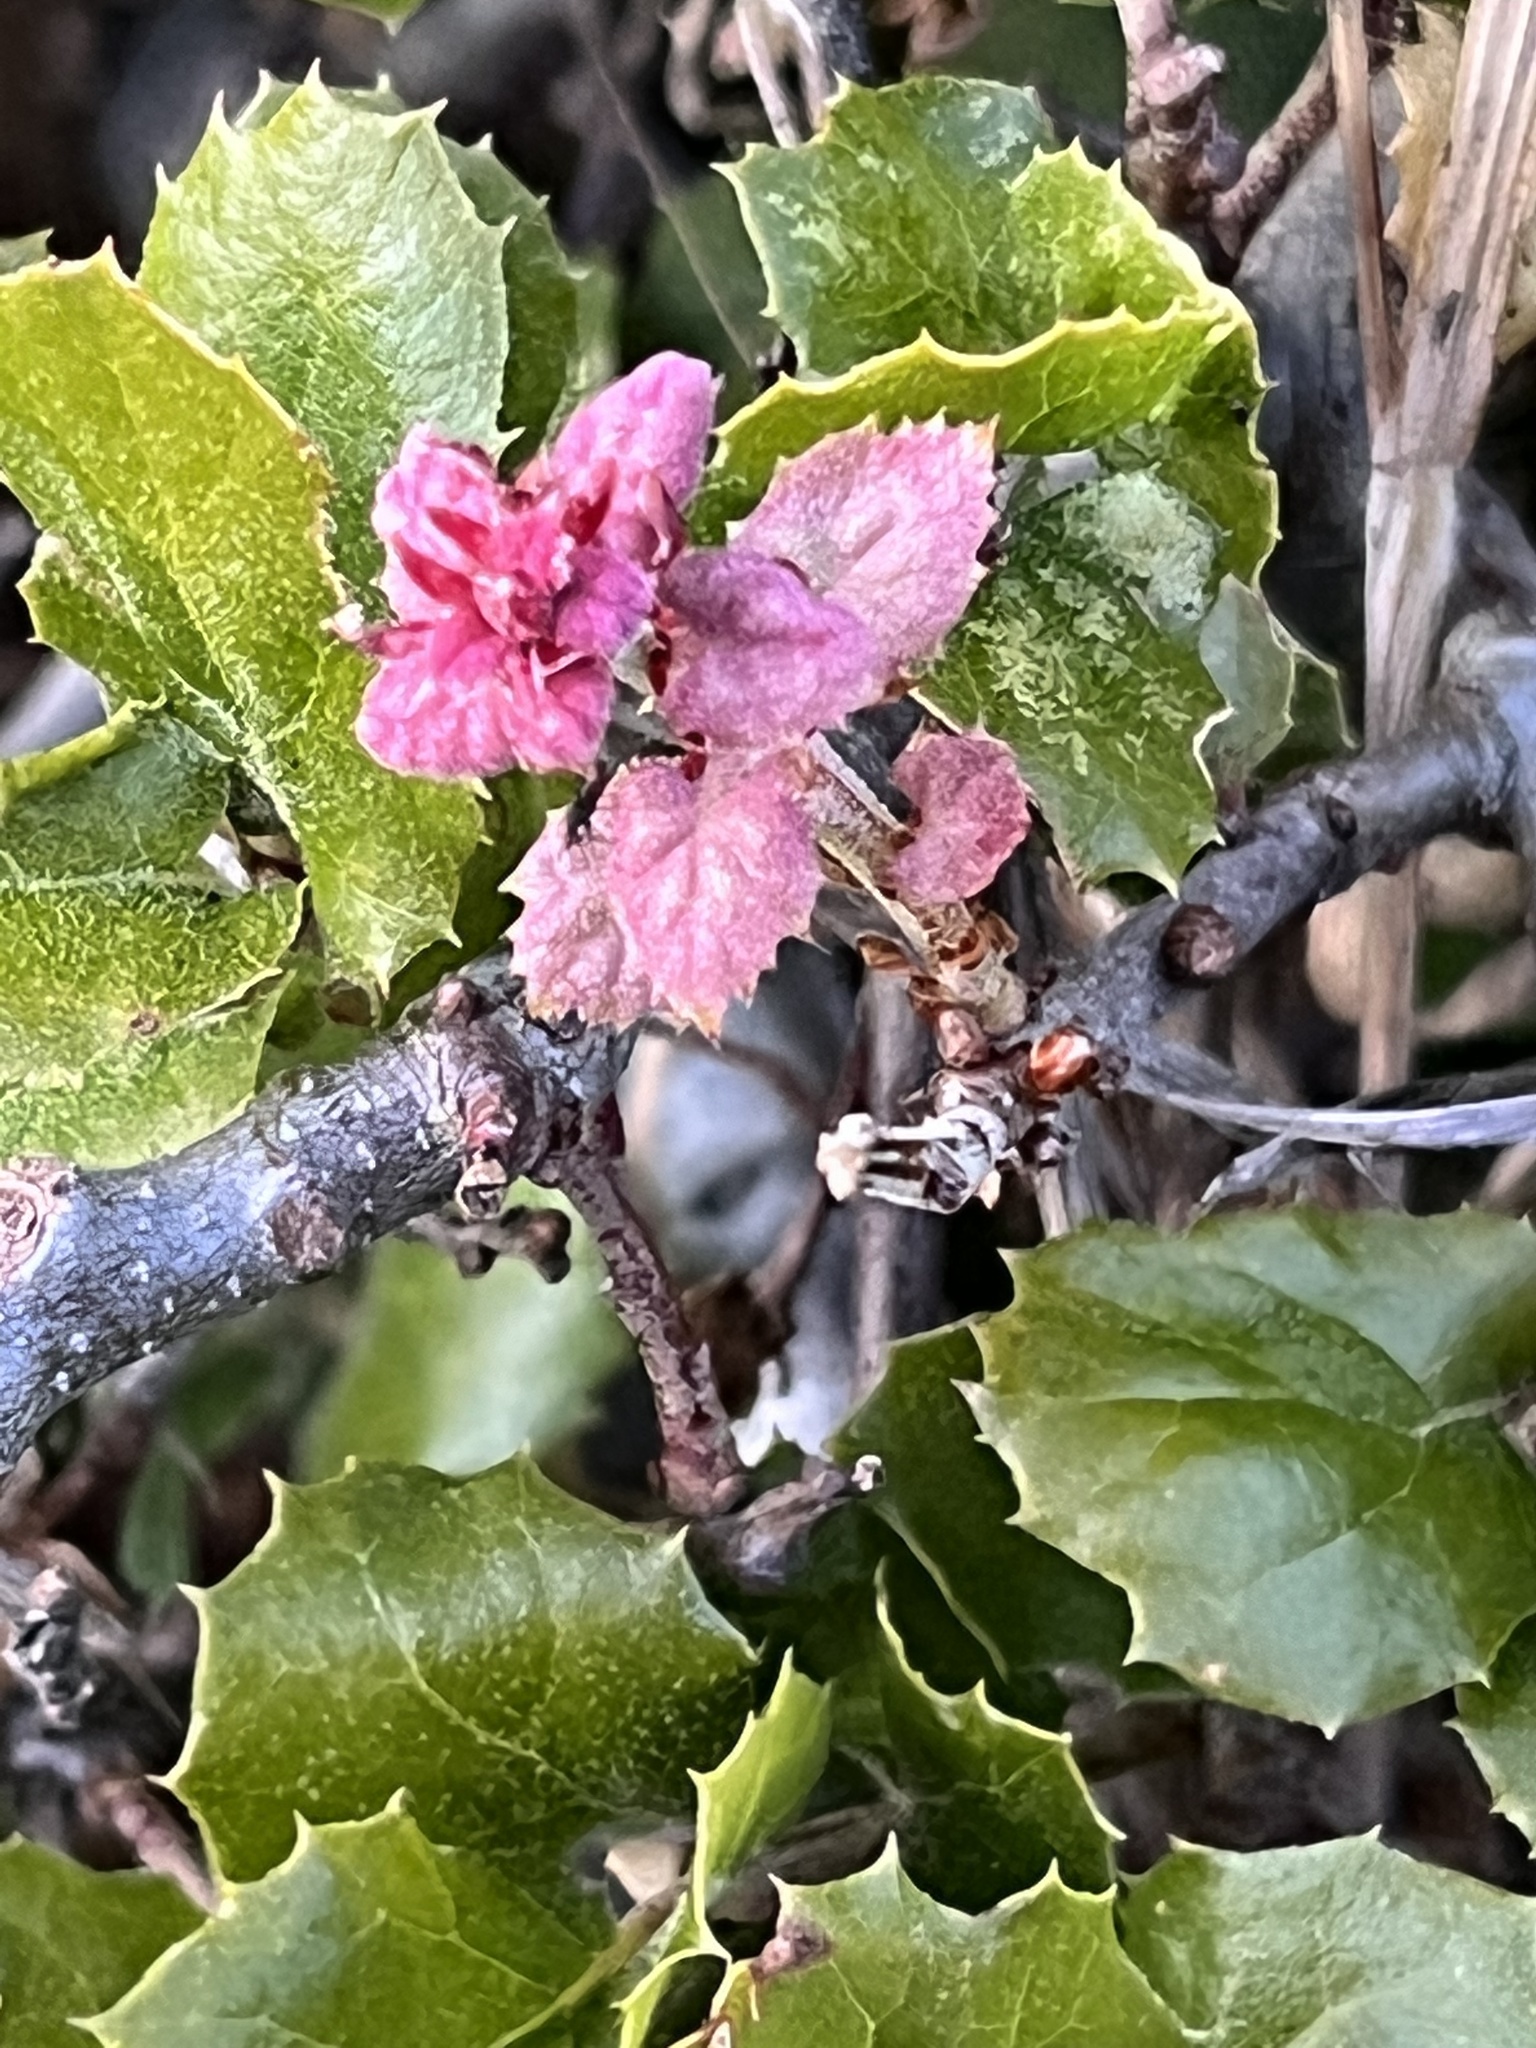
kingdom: Plantae
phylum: Tracheophyta
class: Magnoliopsida
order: Fagales
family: Fagaceae
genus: Quercus
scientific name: Quercus agrifolia
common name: California live oak
